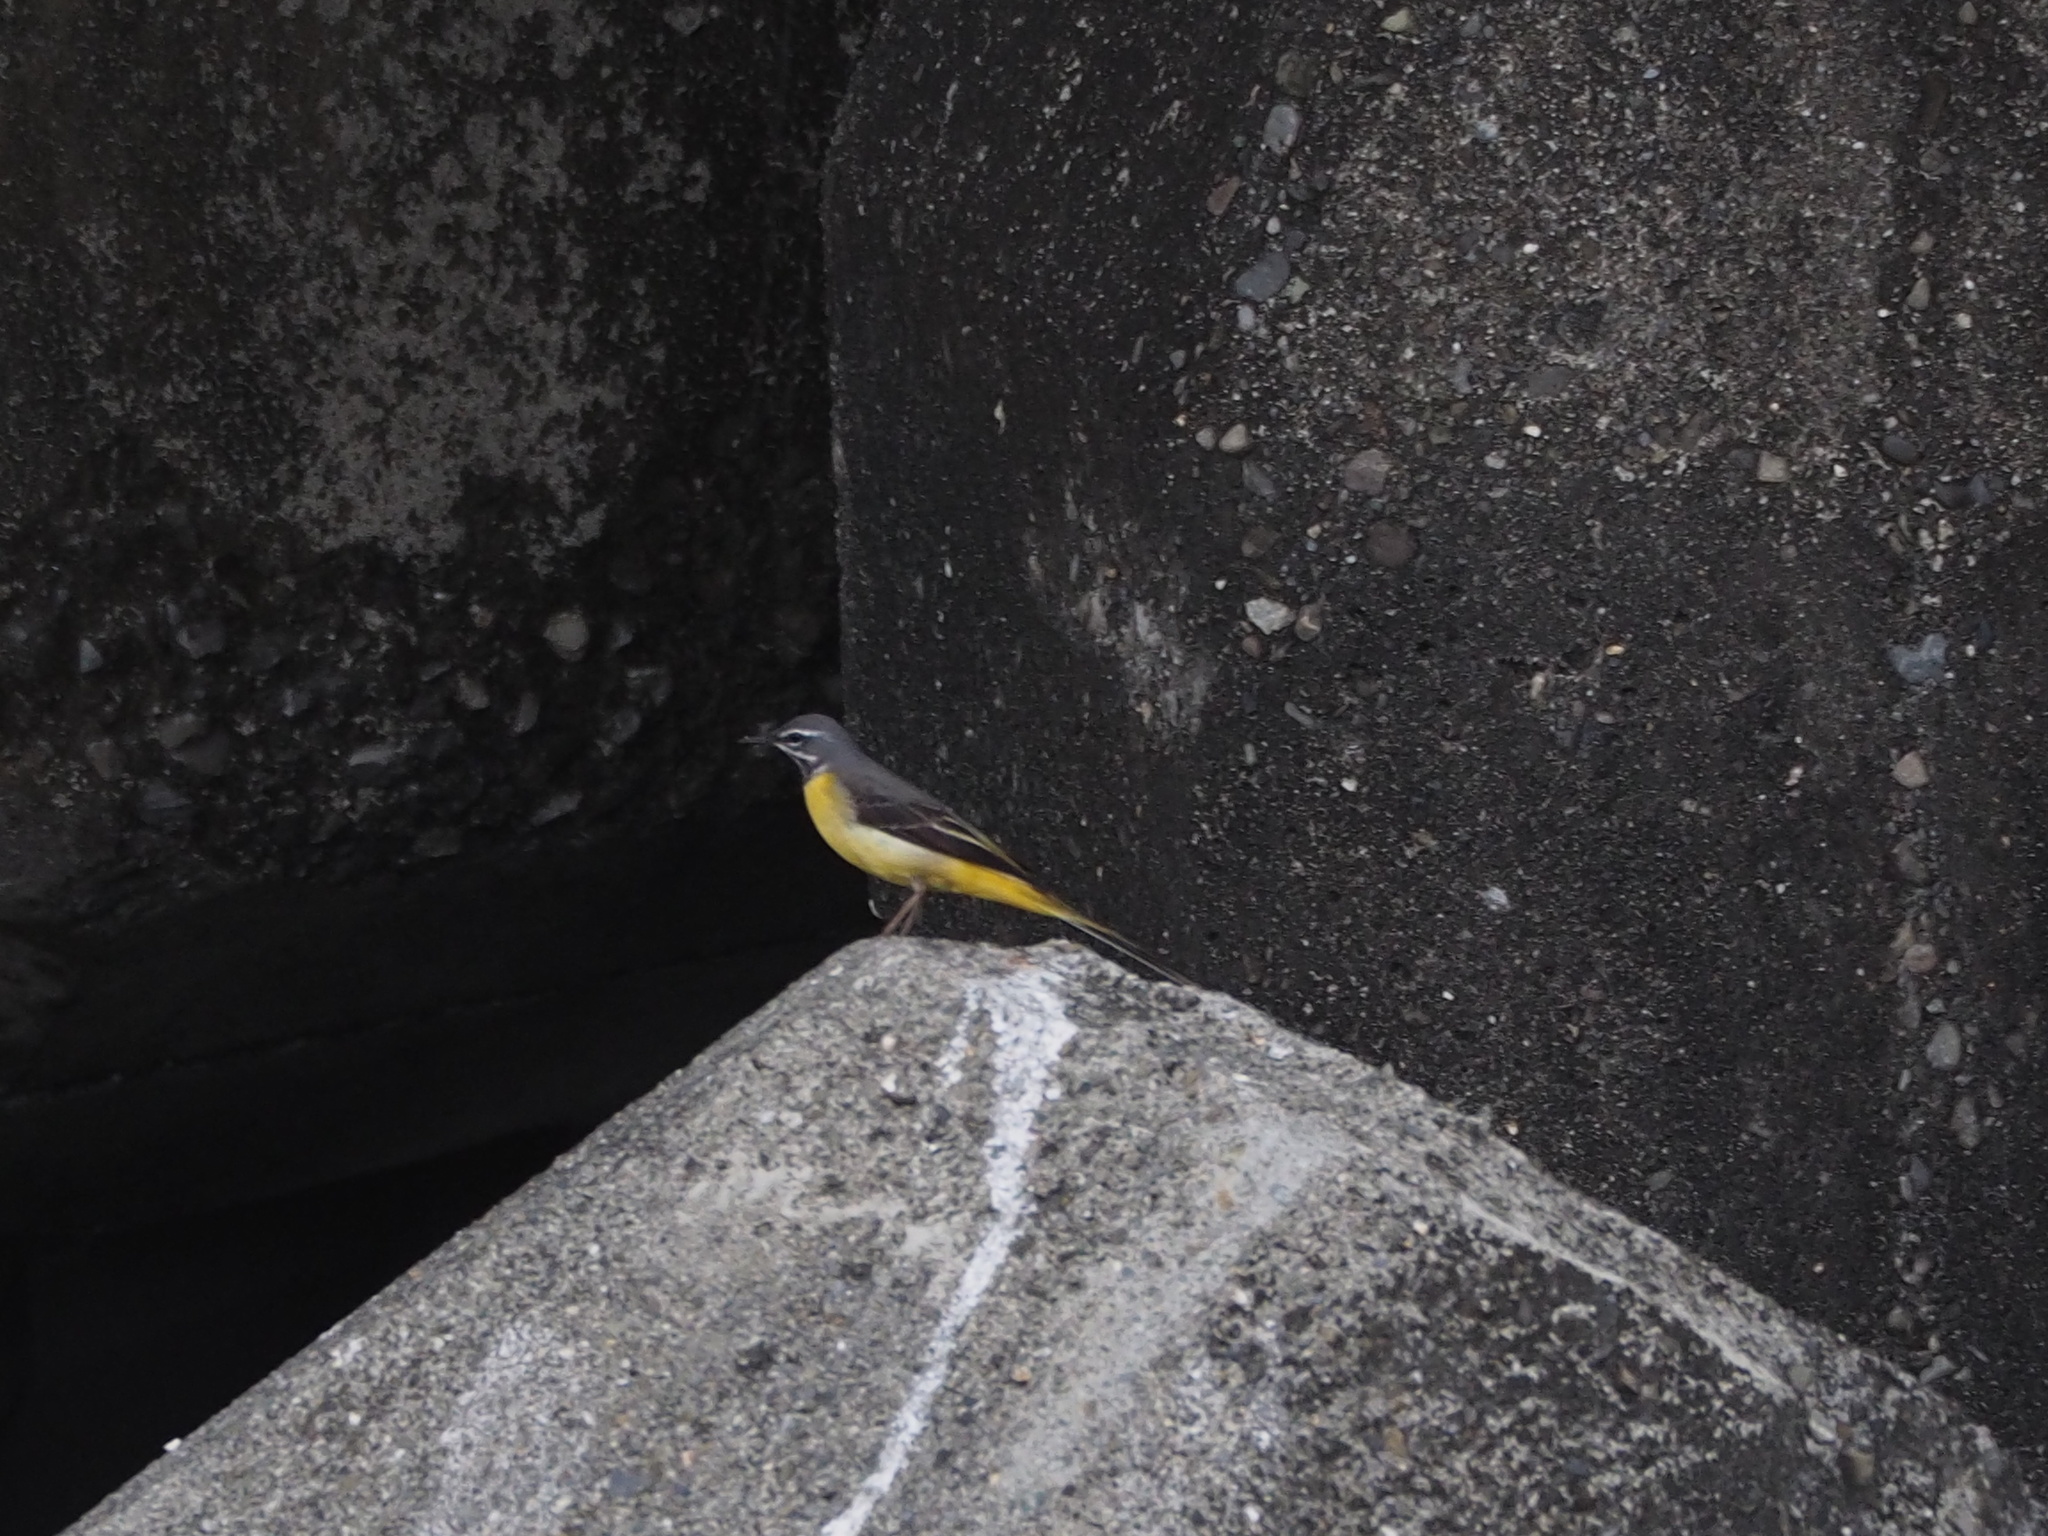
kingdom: Animalia
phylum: Chordata
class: Aves
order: Passeriformes
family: Motacillidae
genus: Motacilla
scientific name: Motacilla cinerea
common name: Grey wagtail
